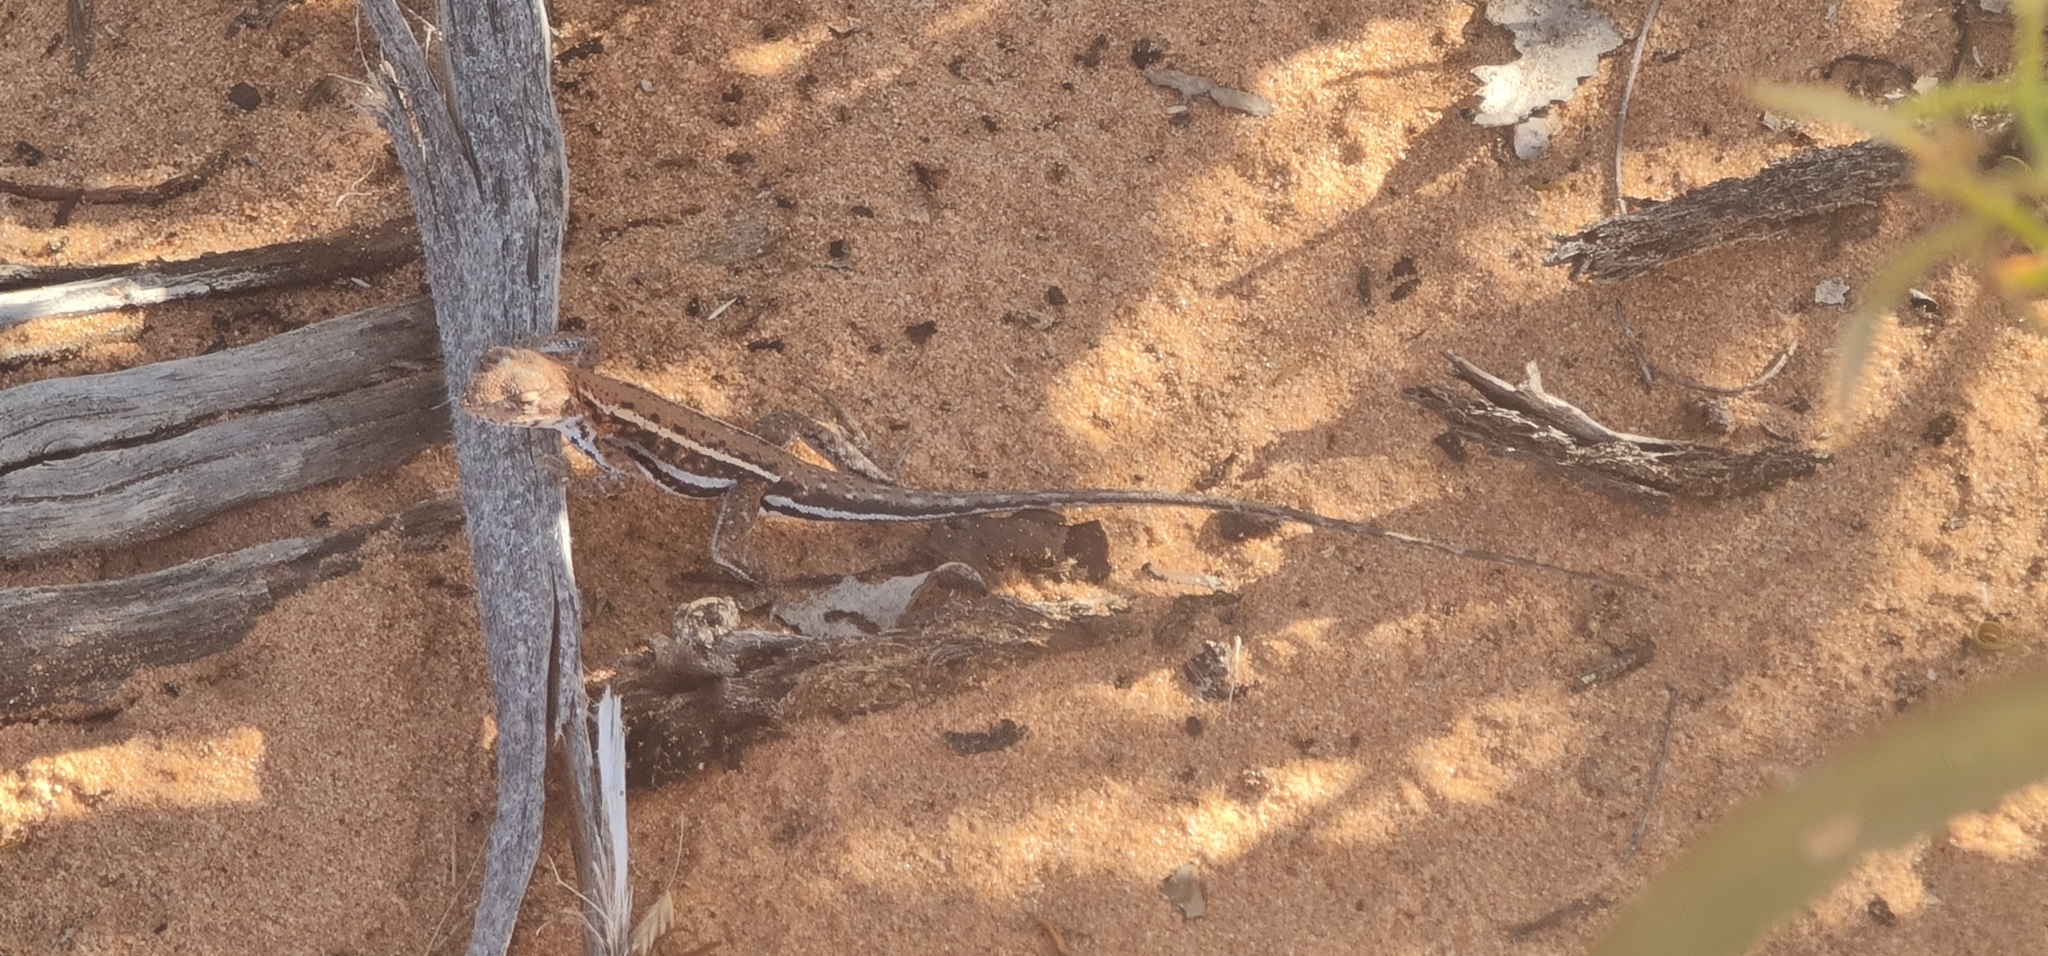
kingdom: Animalia
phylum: Chordata
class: Squamata
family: Agamidae
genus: Ctenophorus
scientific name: Ctenophorus spinodomus
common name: Eastern mallee dragon
